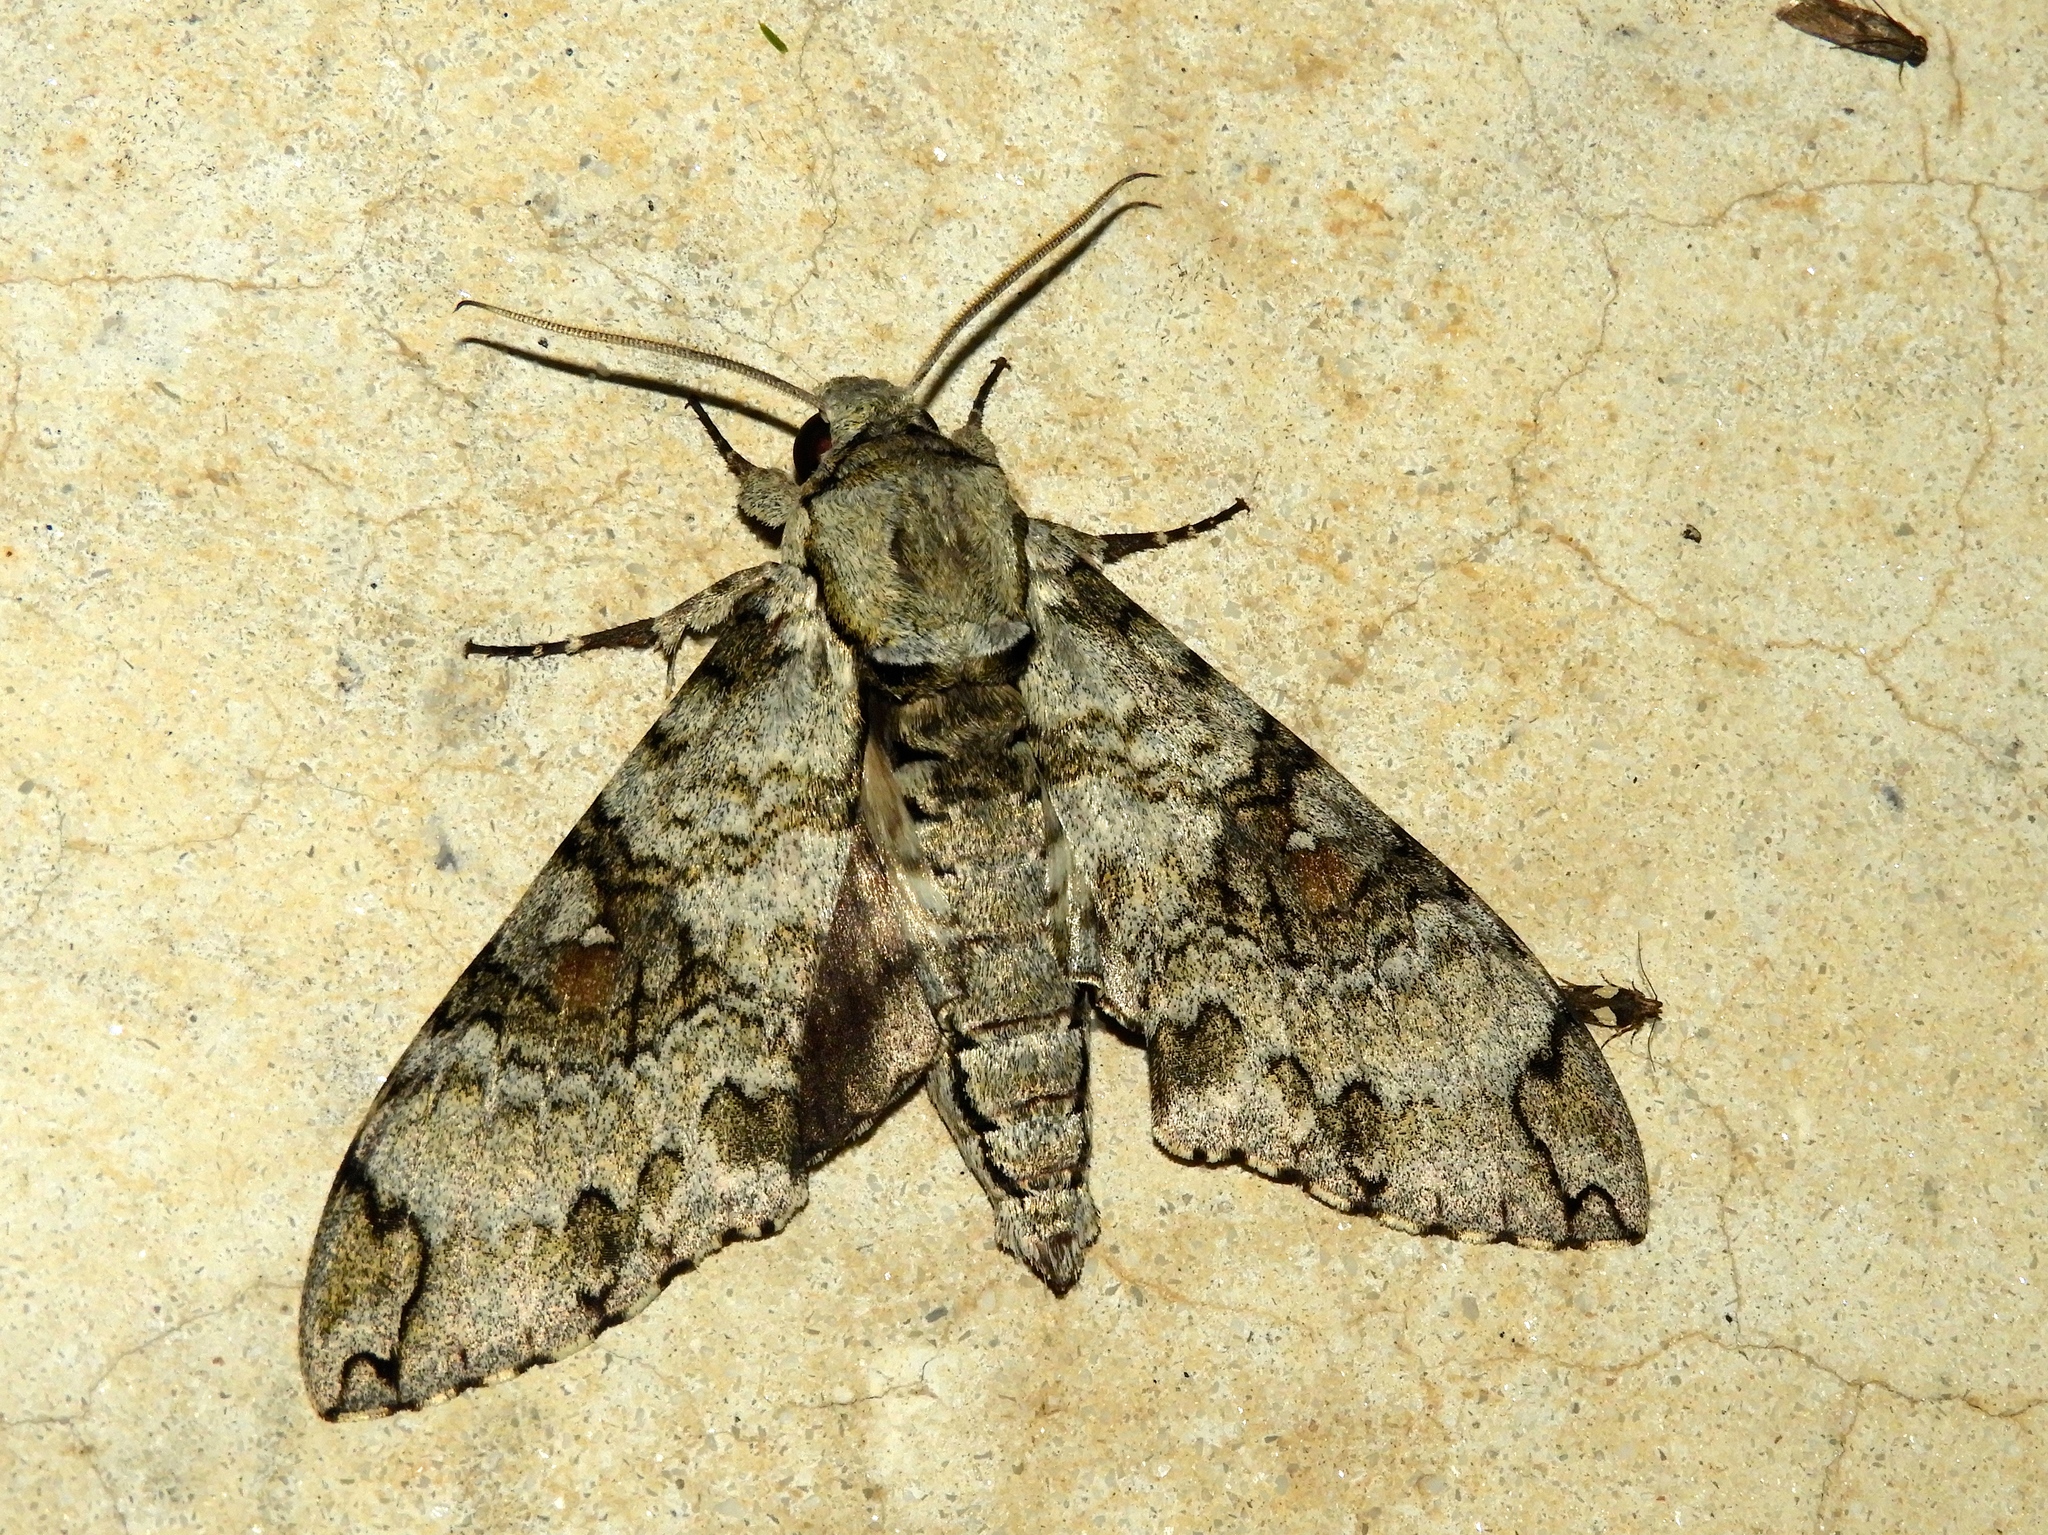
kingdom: Animalia
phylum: Arthropoda
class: Insecta
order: Lepidoptera
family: Sphingidae
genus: Manduca
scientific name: Manduca florestan
